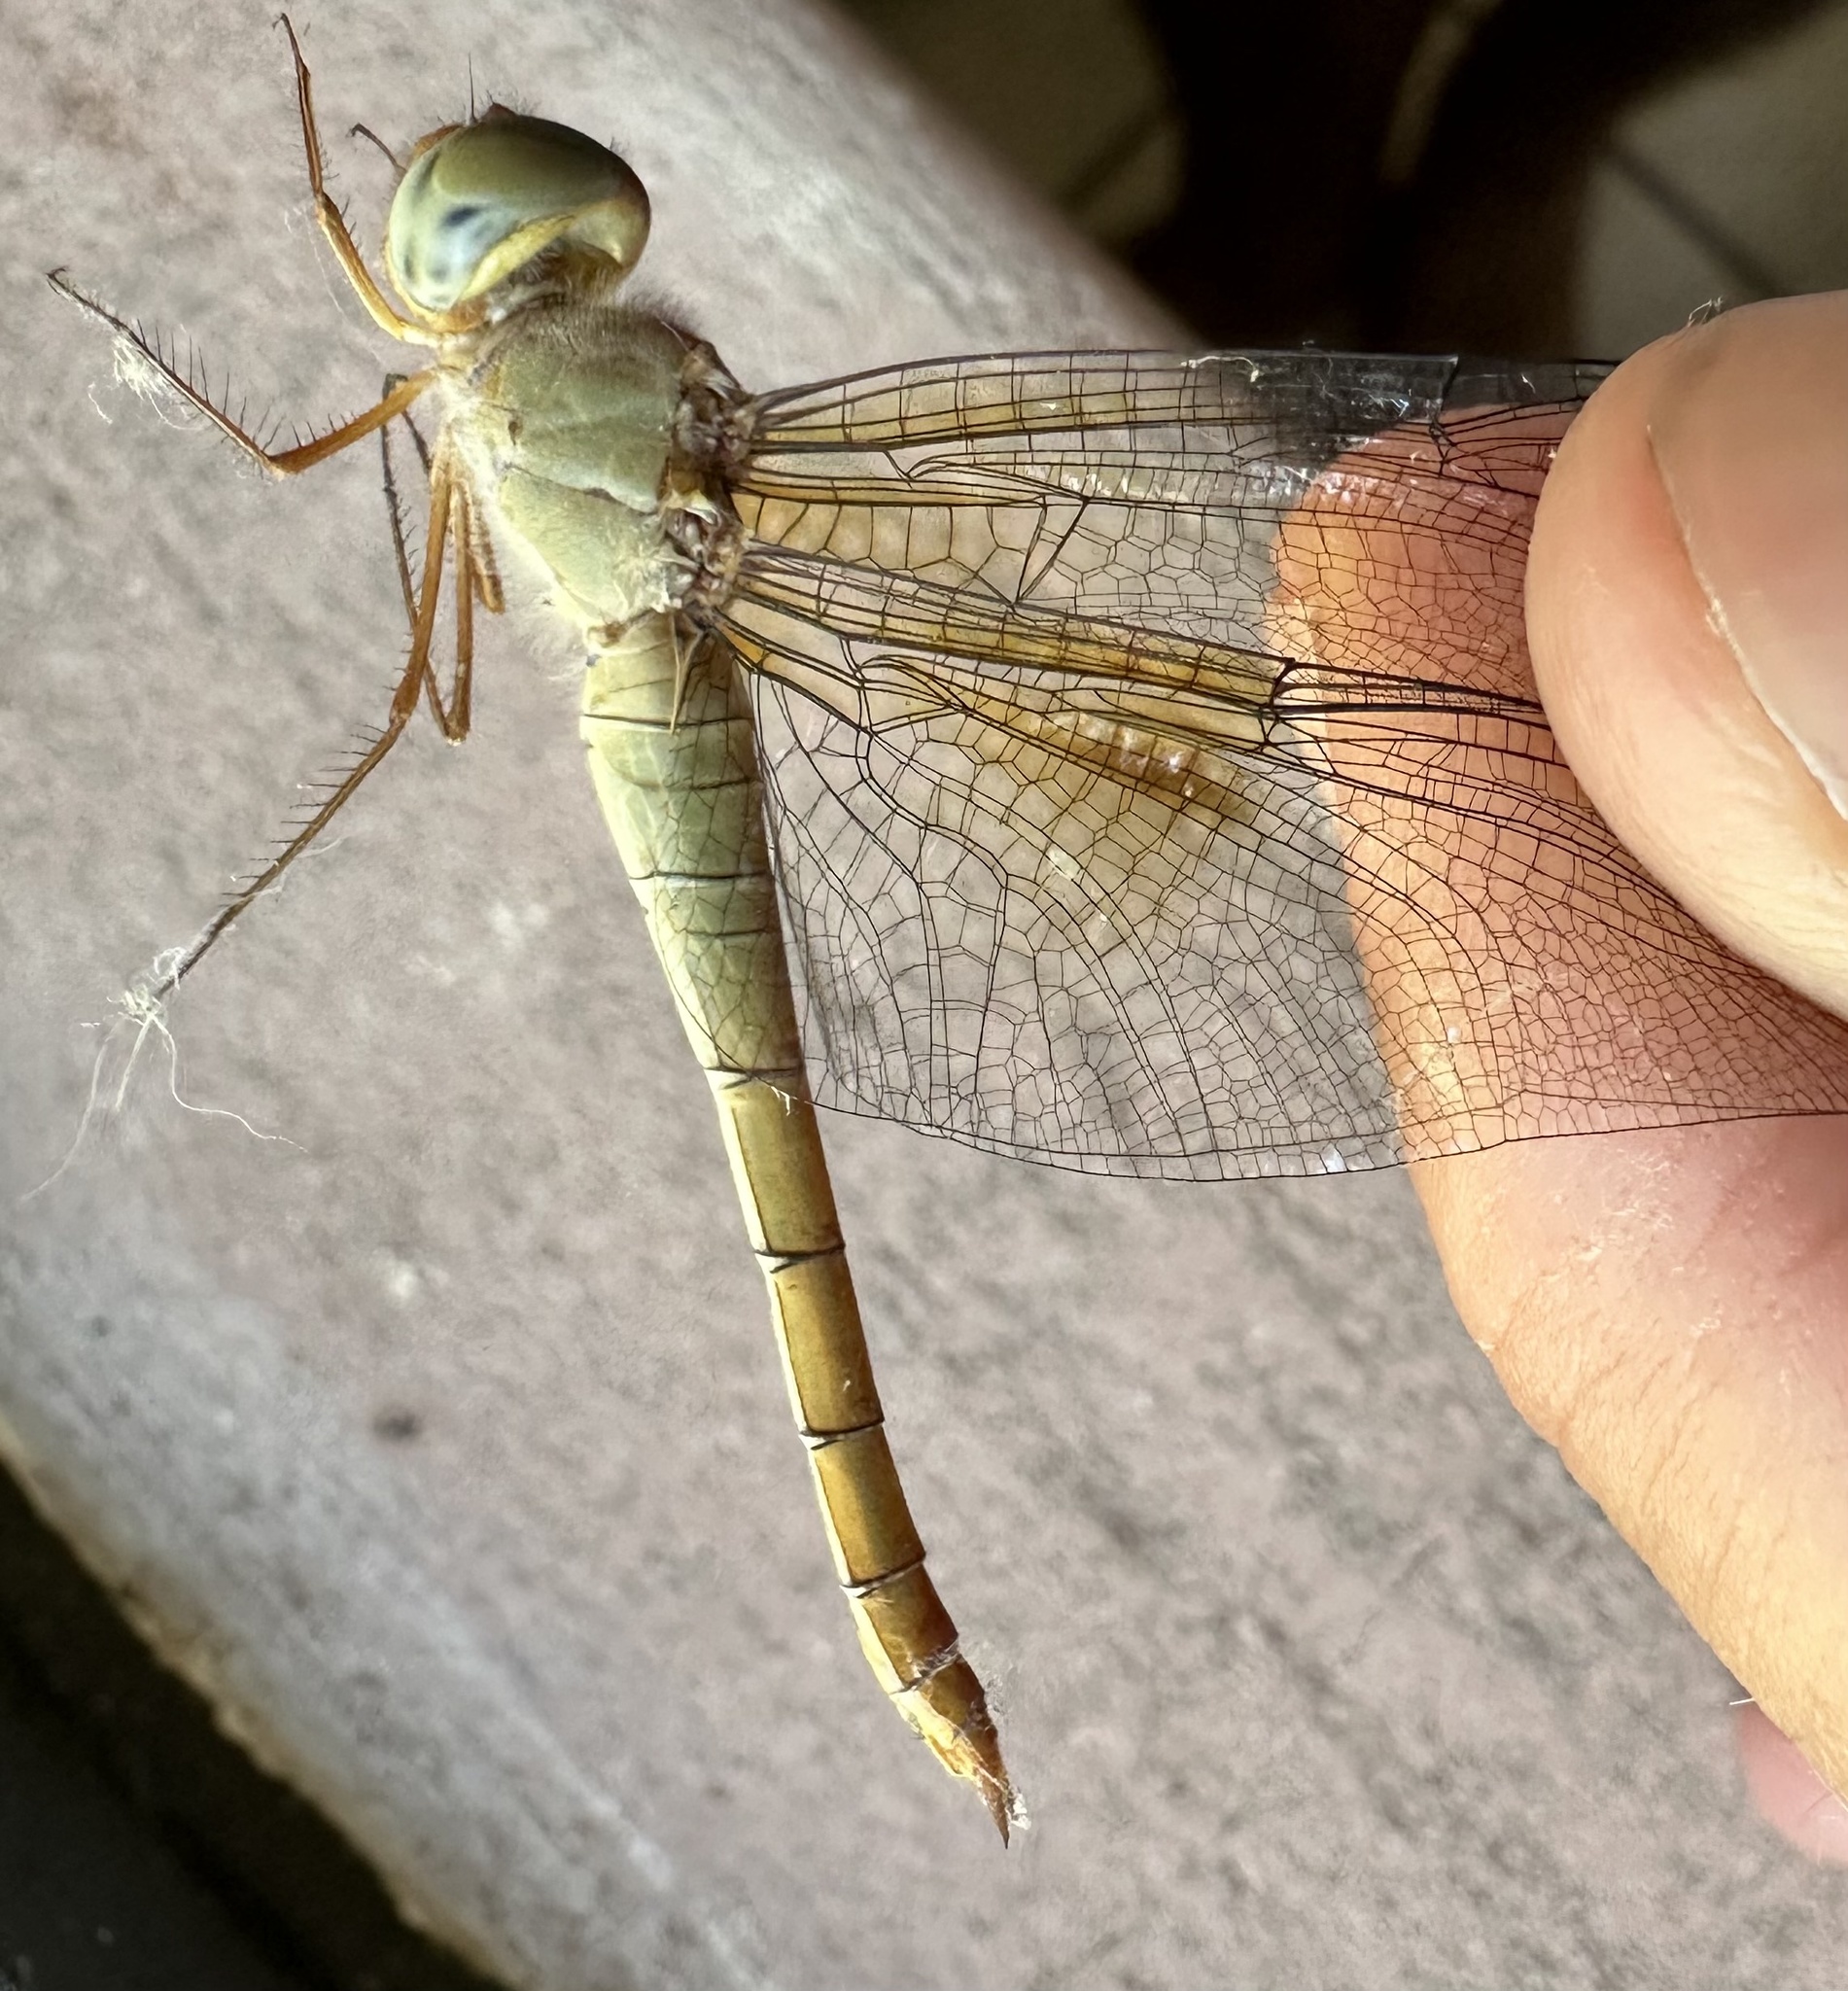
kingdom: Animalia
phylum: Arthropoda
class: Insecta
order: Odonata
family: Libellulidae
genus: Tholymis
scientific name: Tholymis tillarga
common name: Coral-tailed cloud wing
